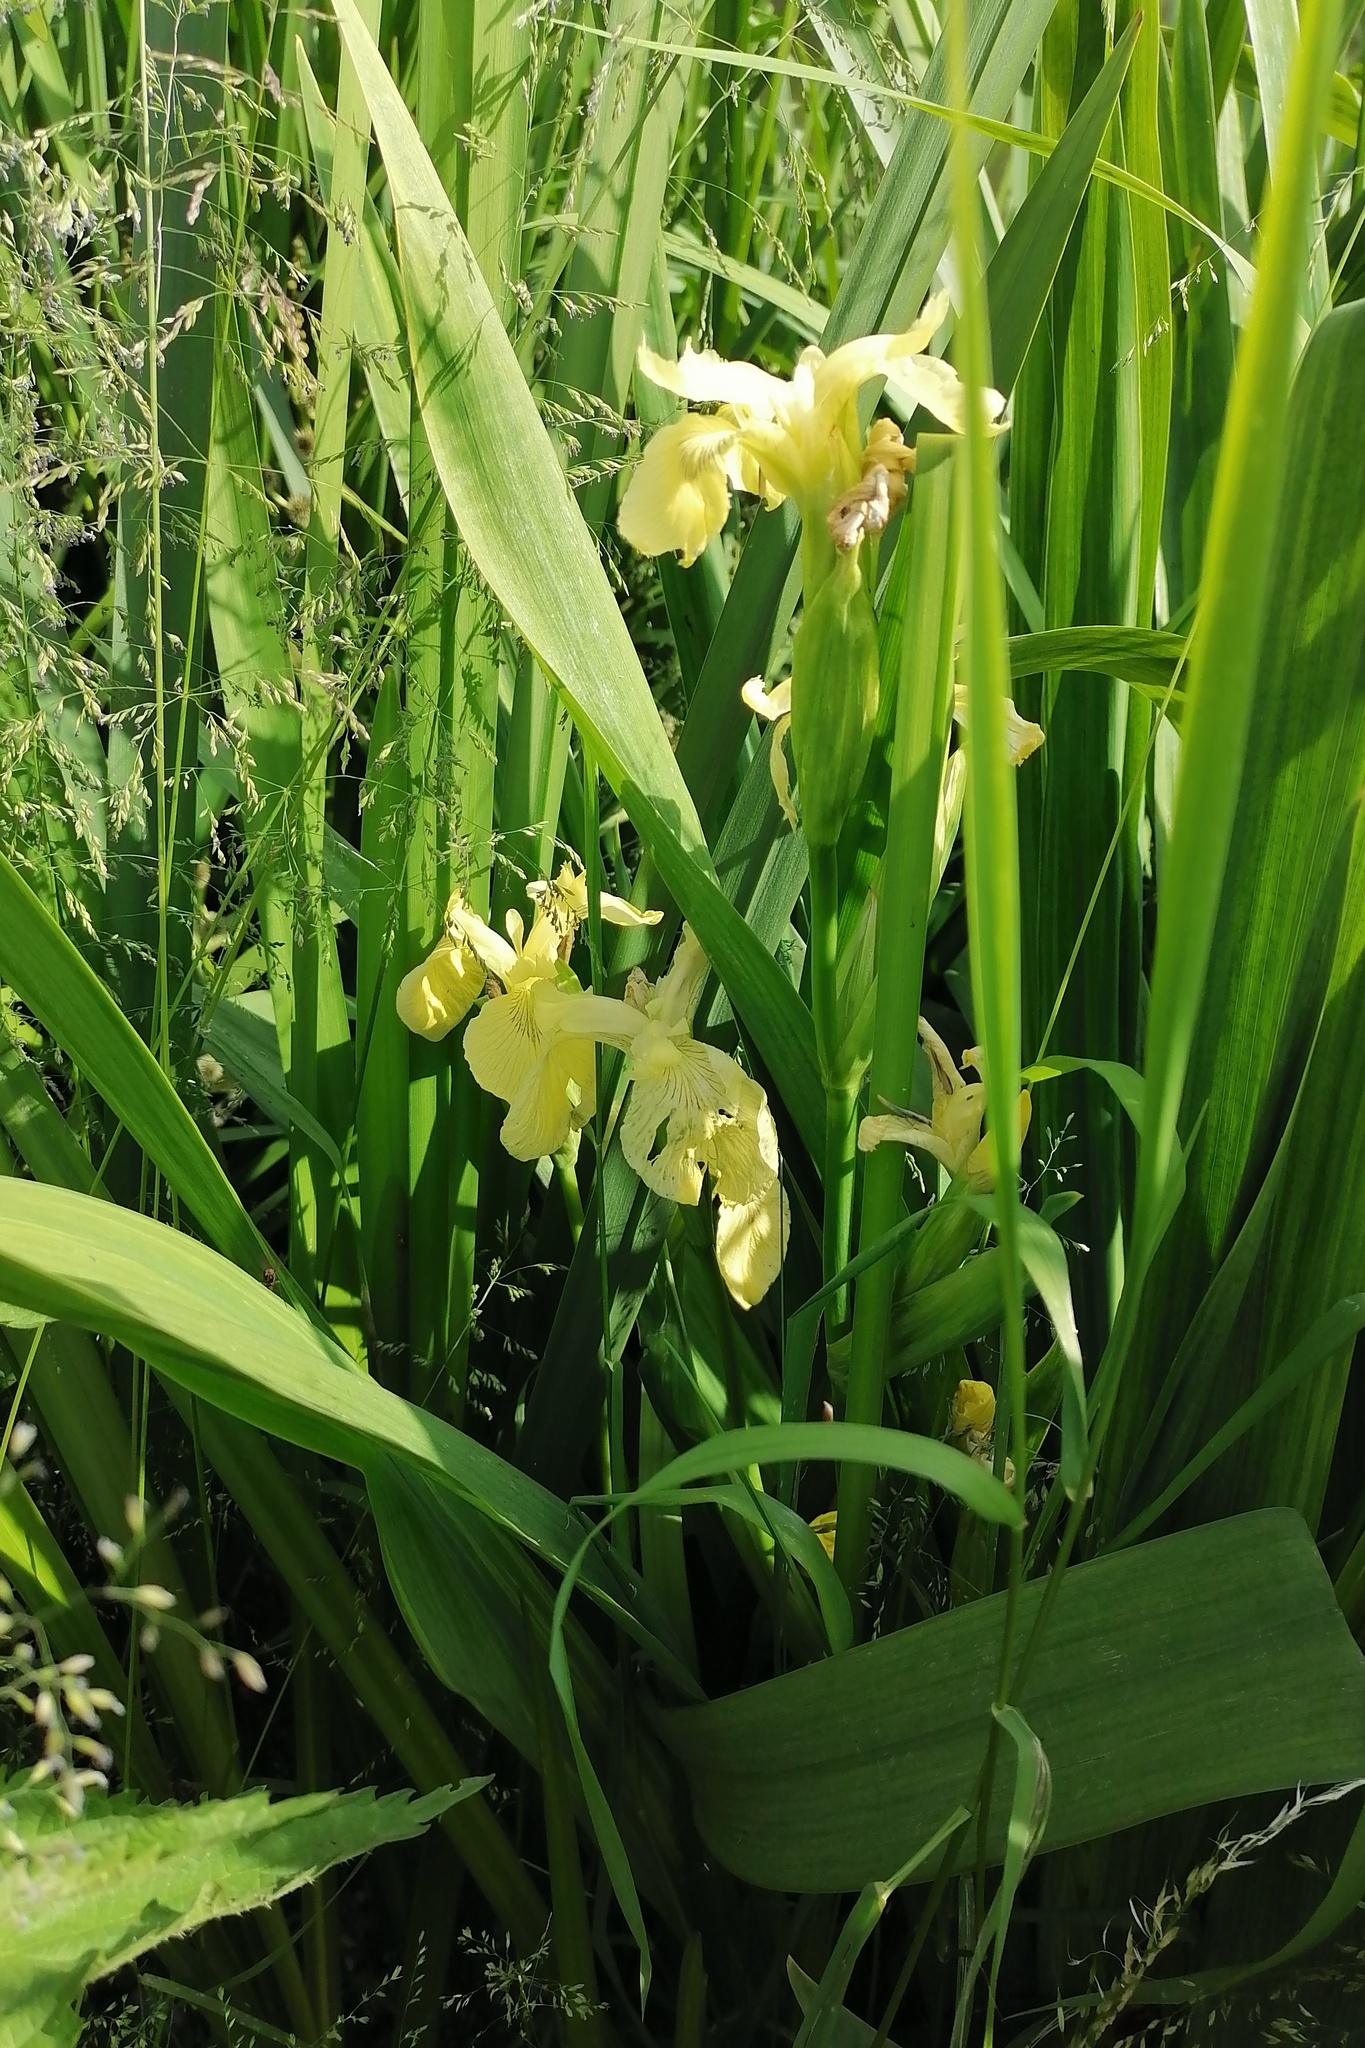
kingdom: Plantae
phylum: Tracheophyta
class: Liliopsida
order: Asparagales
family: Iridaceae
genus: Iris
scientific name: Iris pseudacorus
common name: Yellow flag
